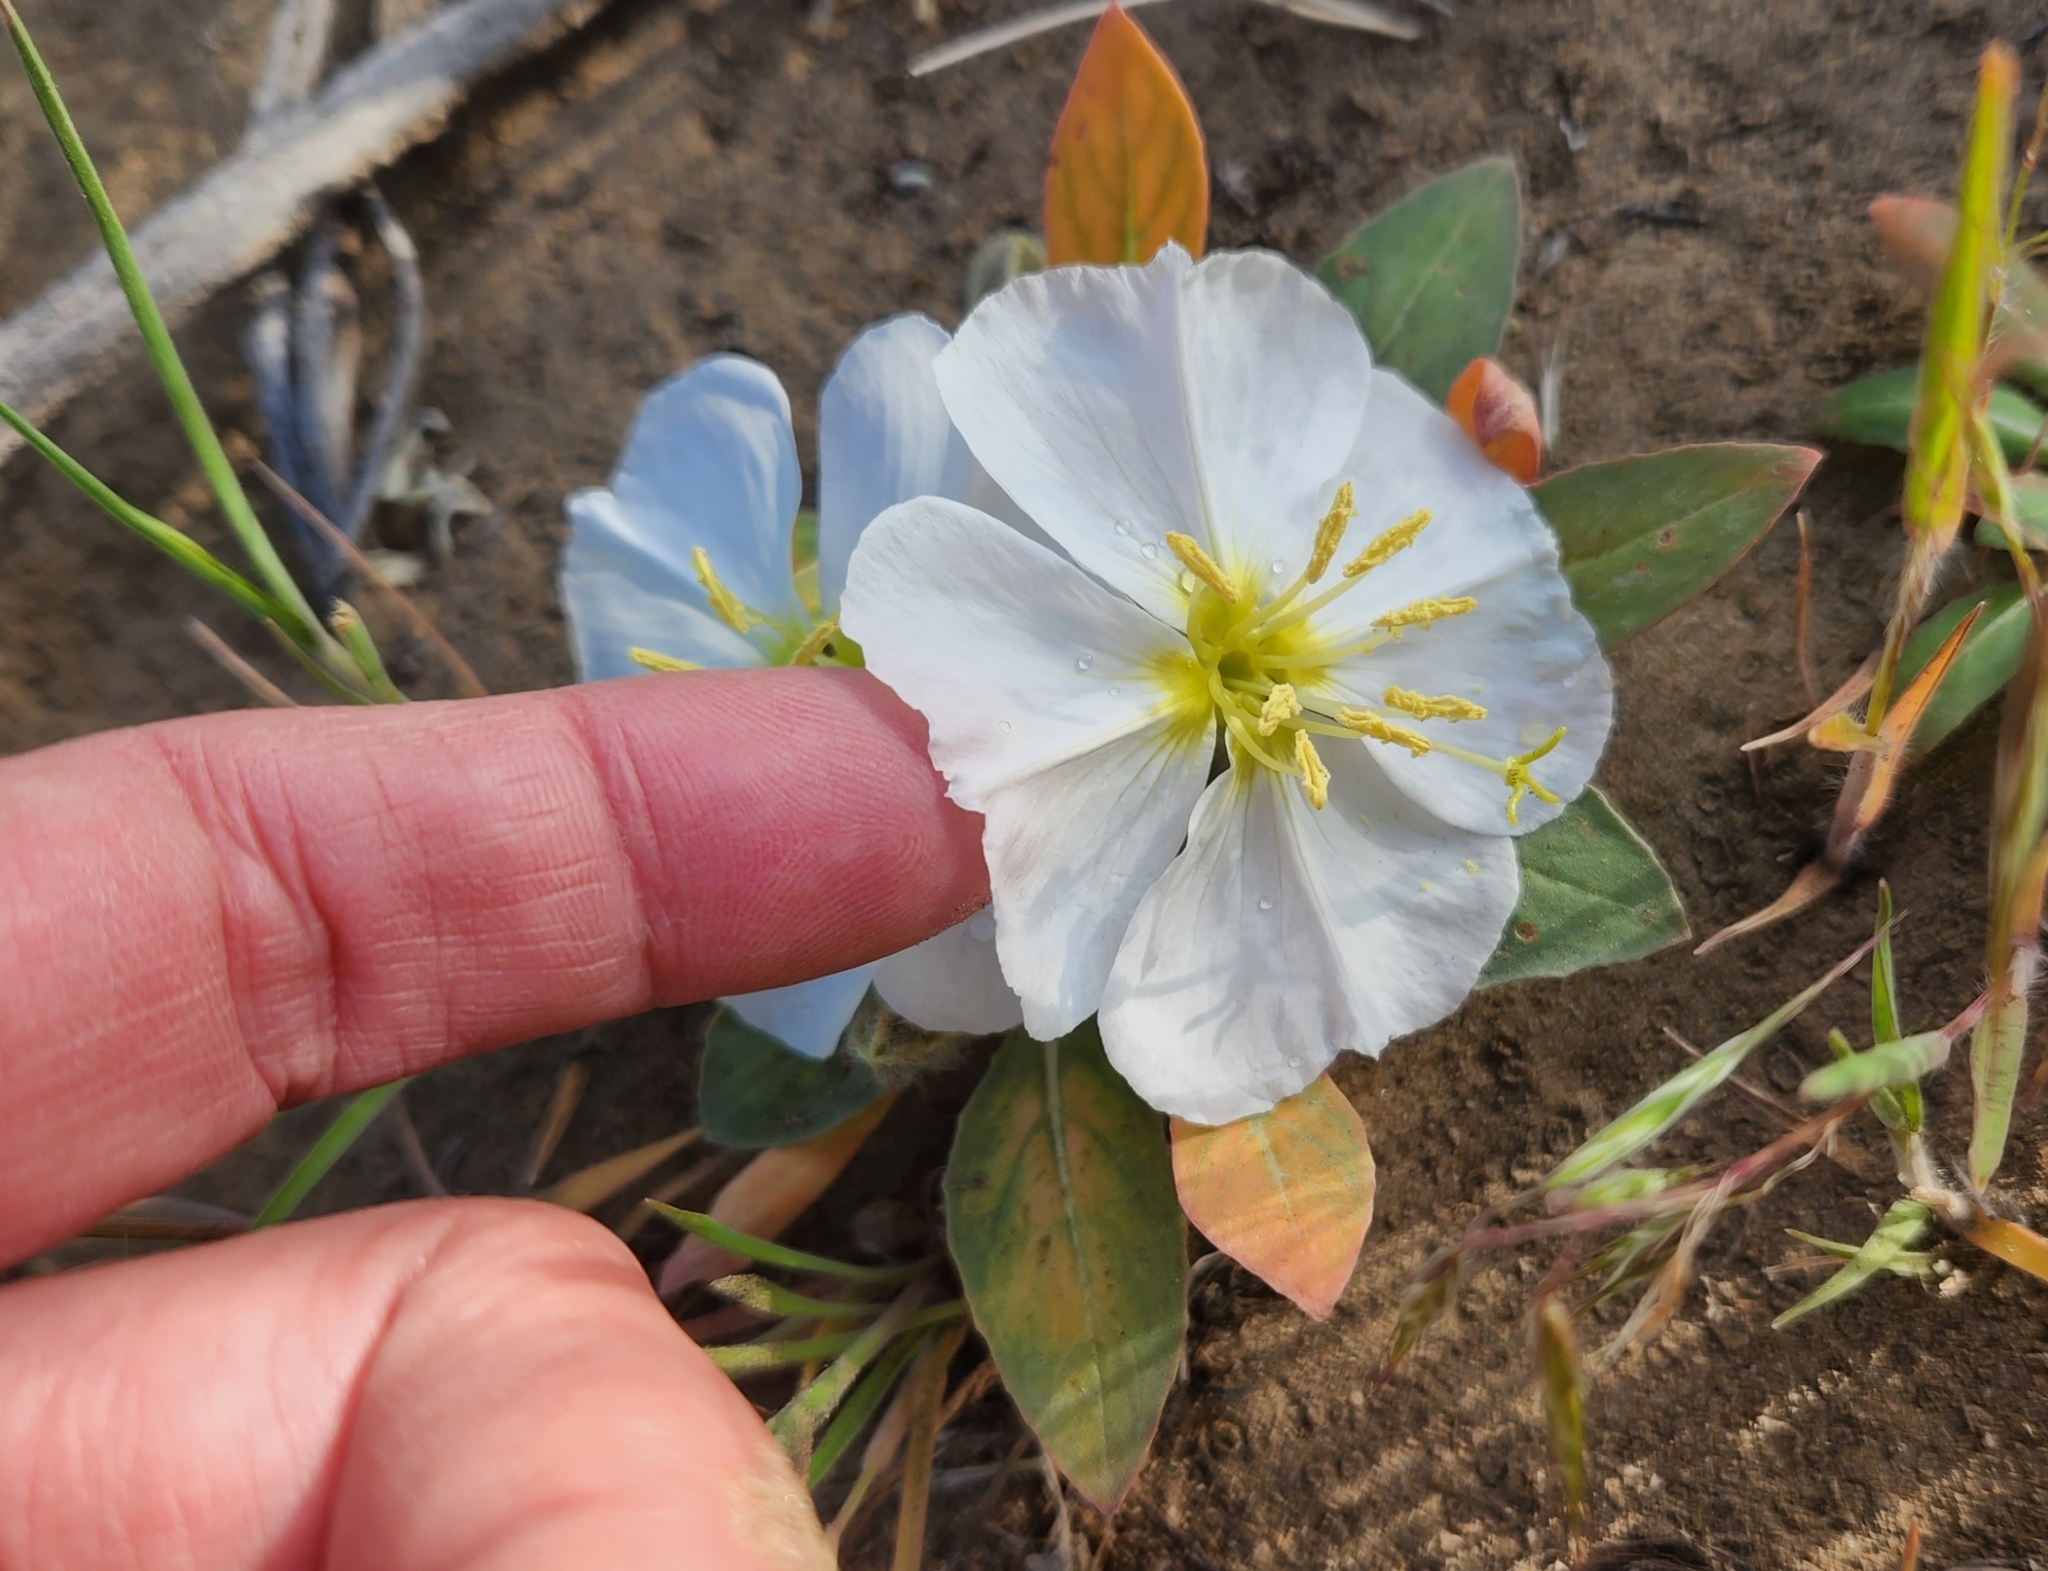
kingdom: Plantae
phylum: Tracheophyta
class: Magnoliopsida
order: Myrtales
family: Onagraceae
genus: Oenothera
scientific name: Oenothera cespitosa
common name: Tufted evening-primrose
